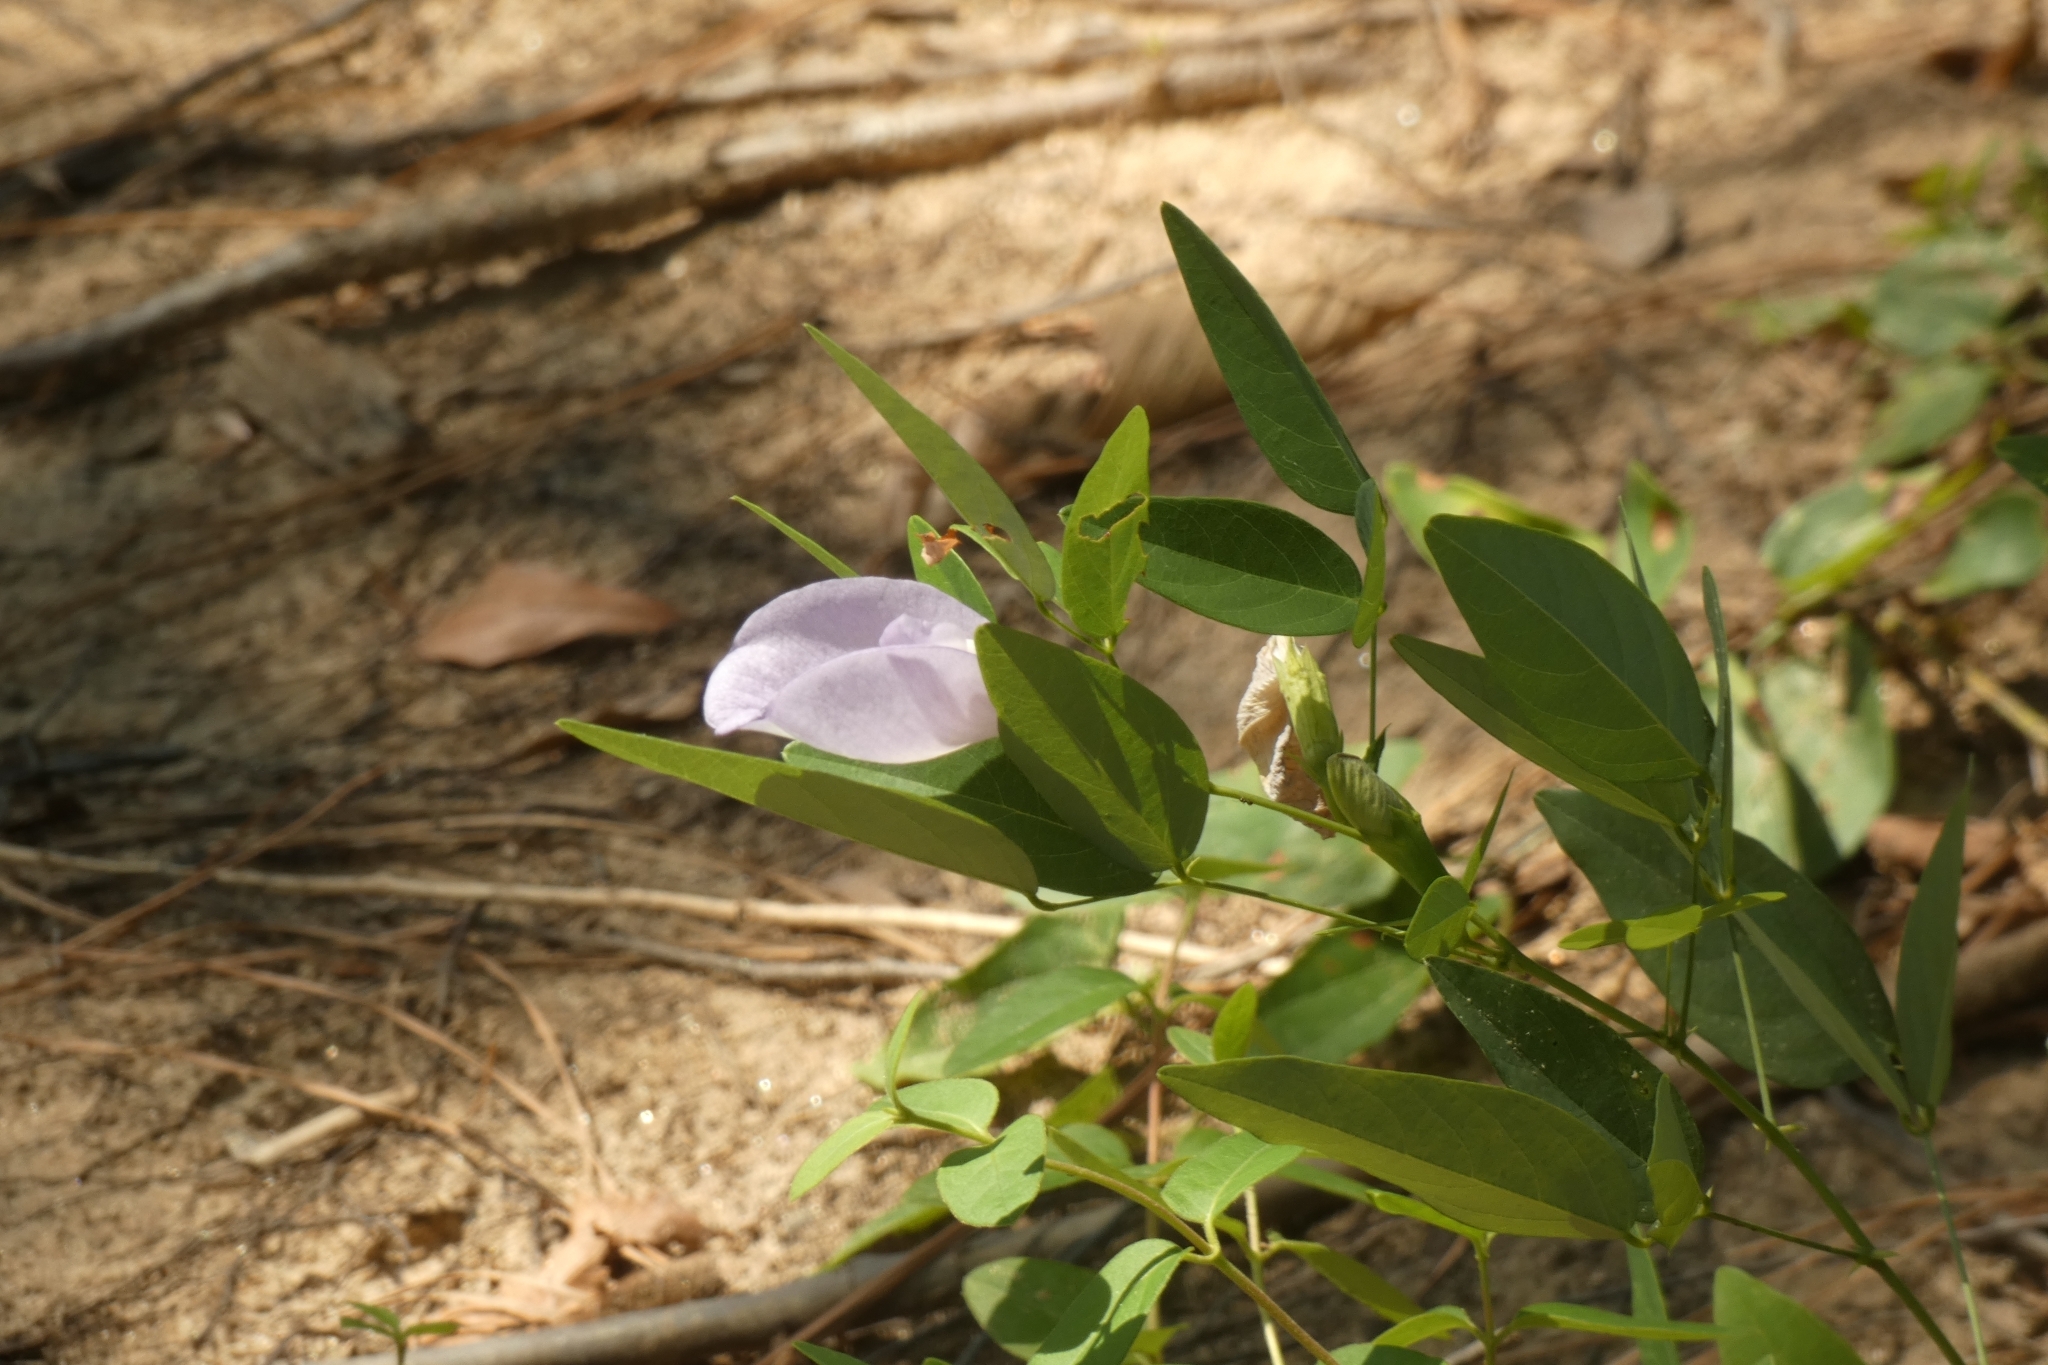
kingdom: Plantae
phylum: Tracheophyta
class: Magnoliopsida
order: Fabales
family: Fabaceae
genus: Clitoria
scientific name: Clitoria mariana
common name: Butterfly-pea
